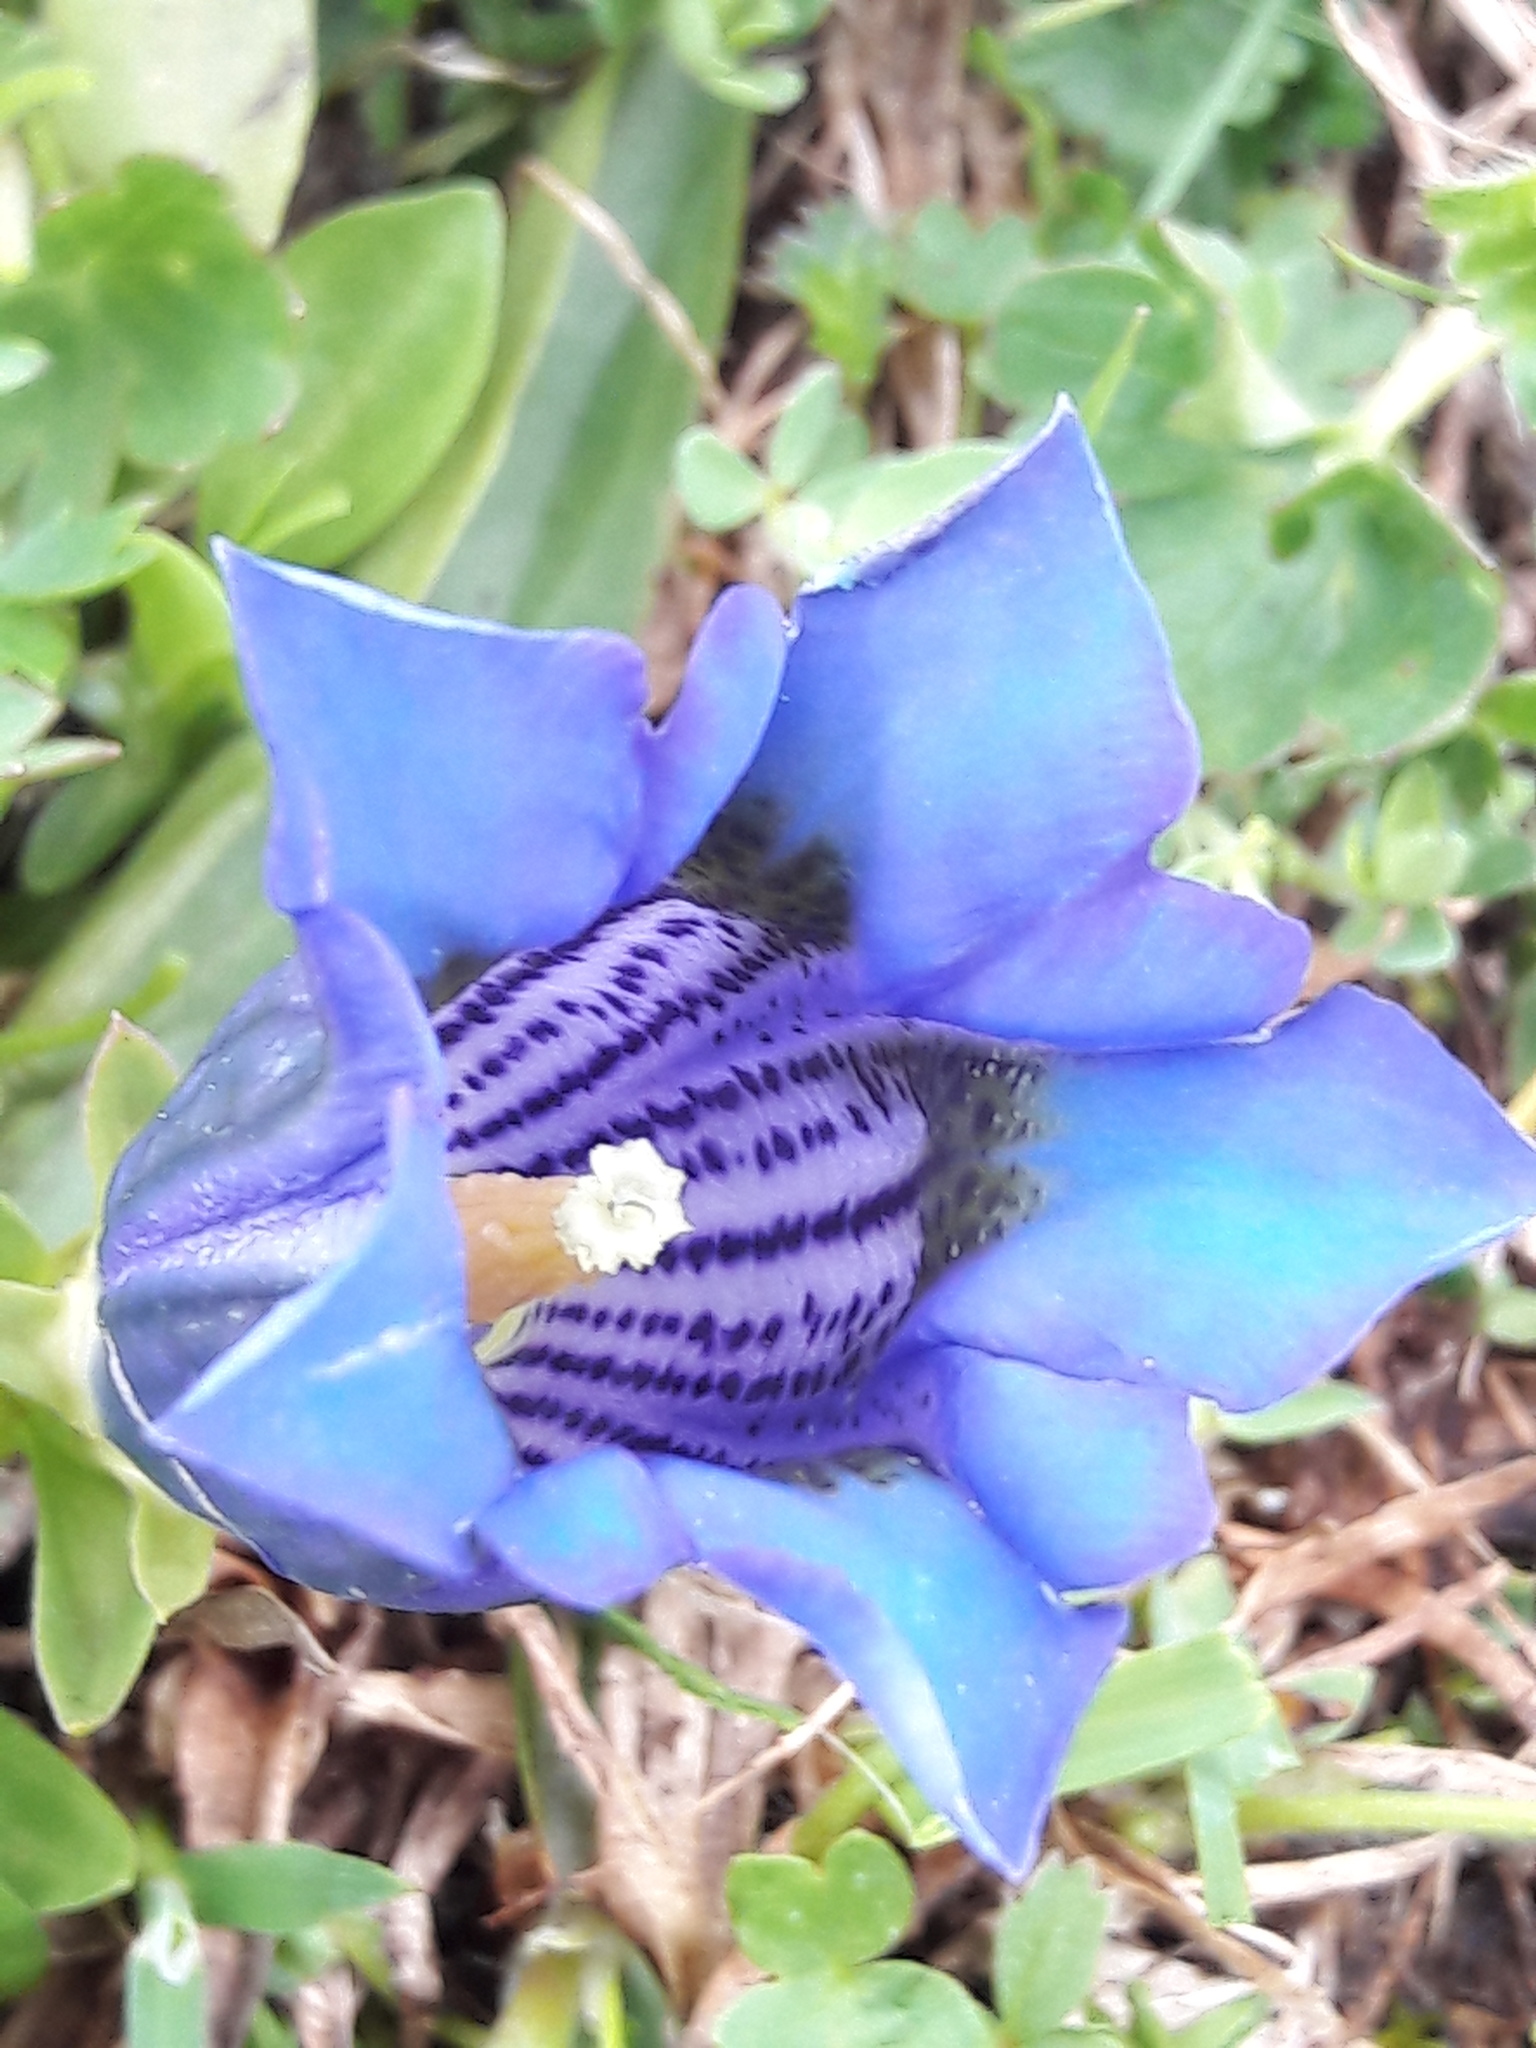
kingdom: Plantae
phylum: Tracheophyta
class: Magnoliopsida
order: Gentianales
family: Gentianaceae
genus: Gentiana
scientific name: Gentiana acaulis
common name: Trumpet gentian
